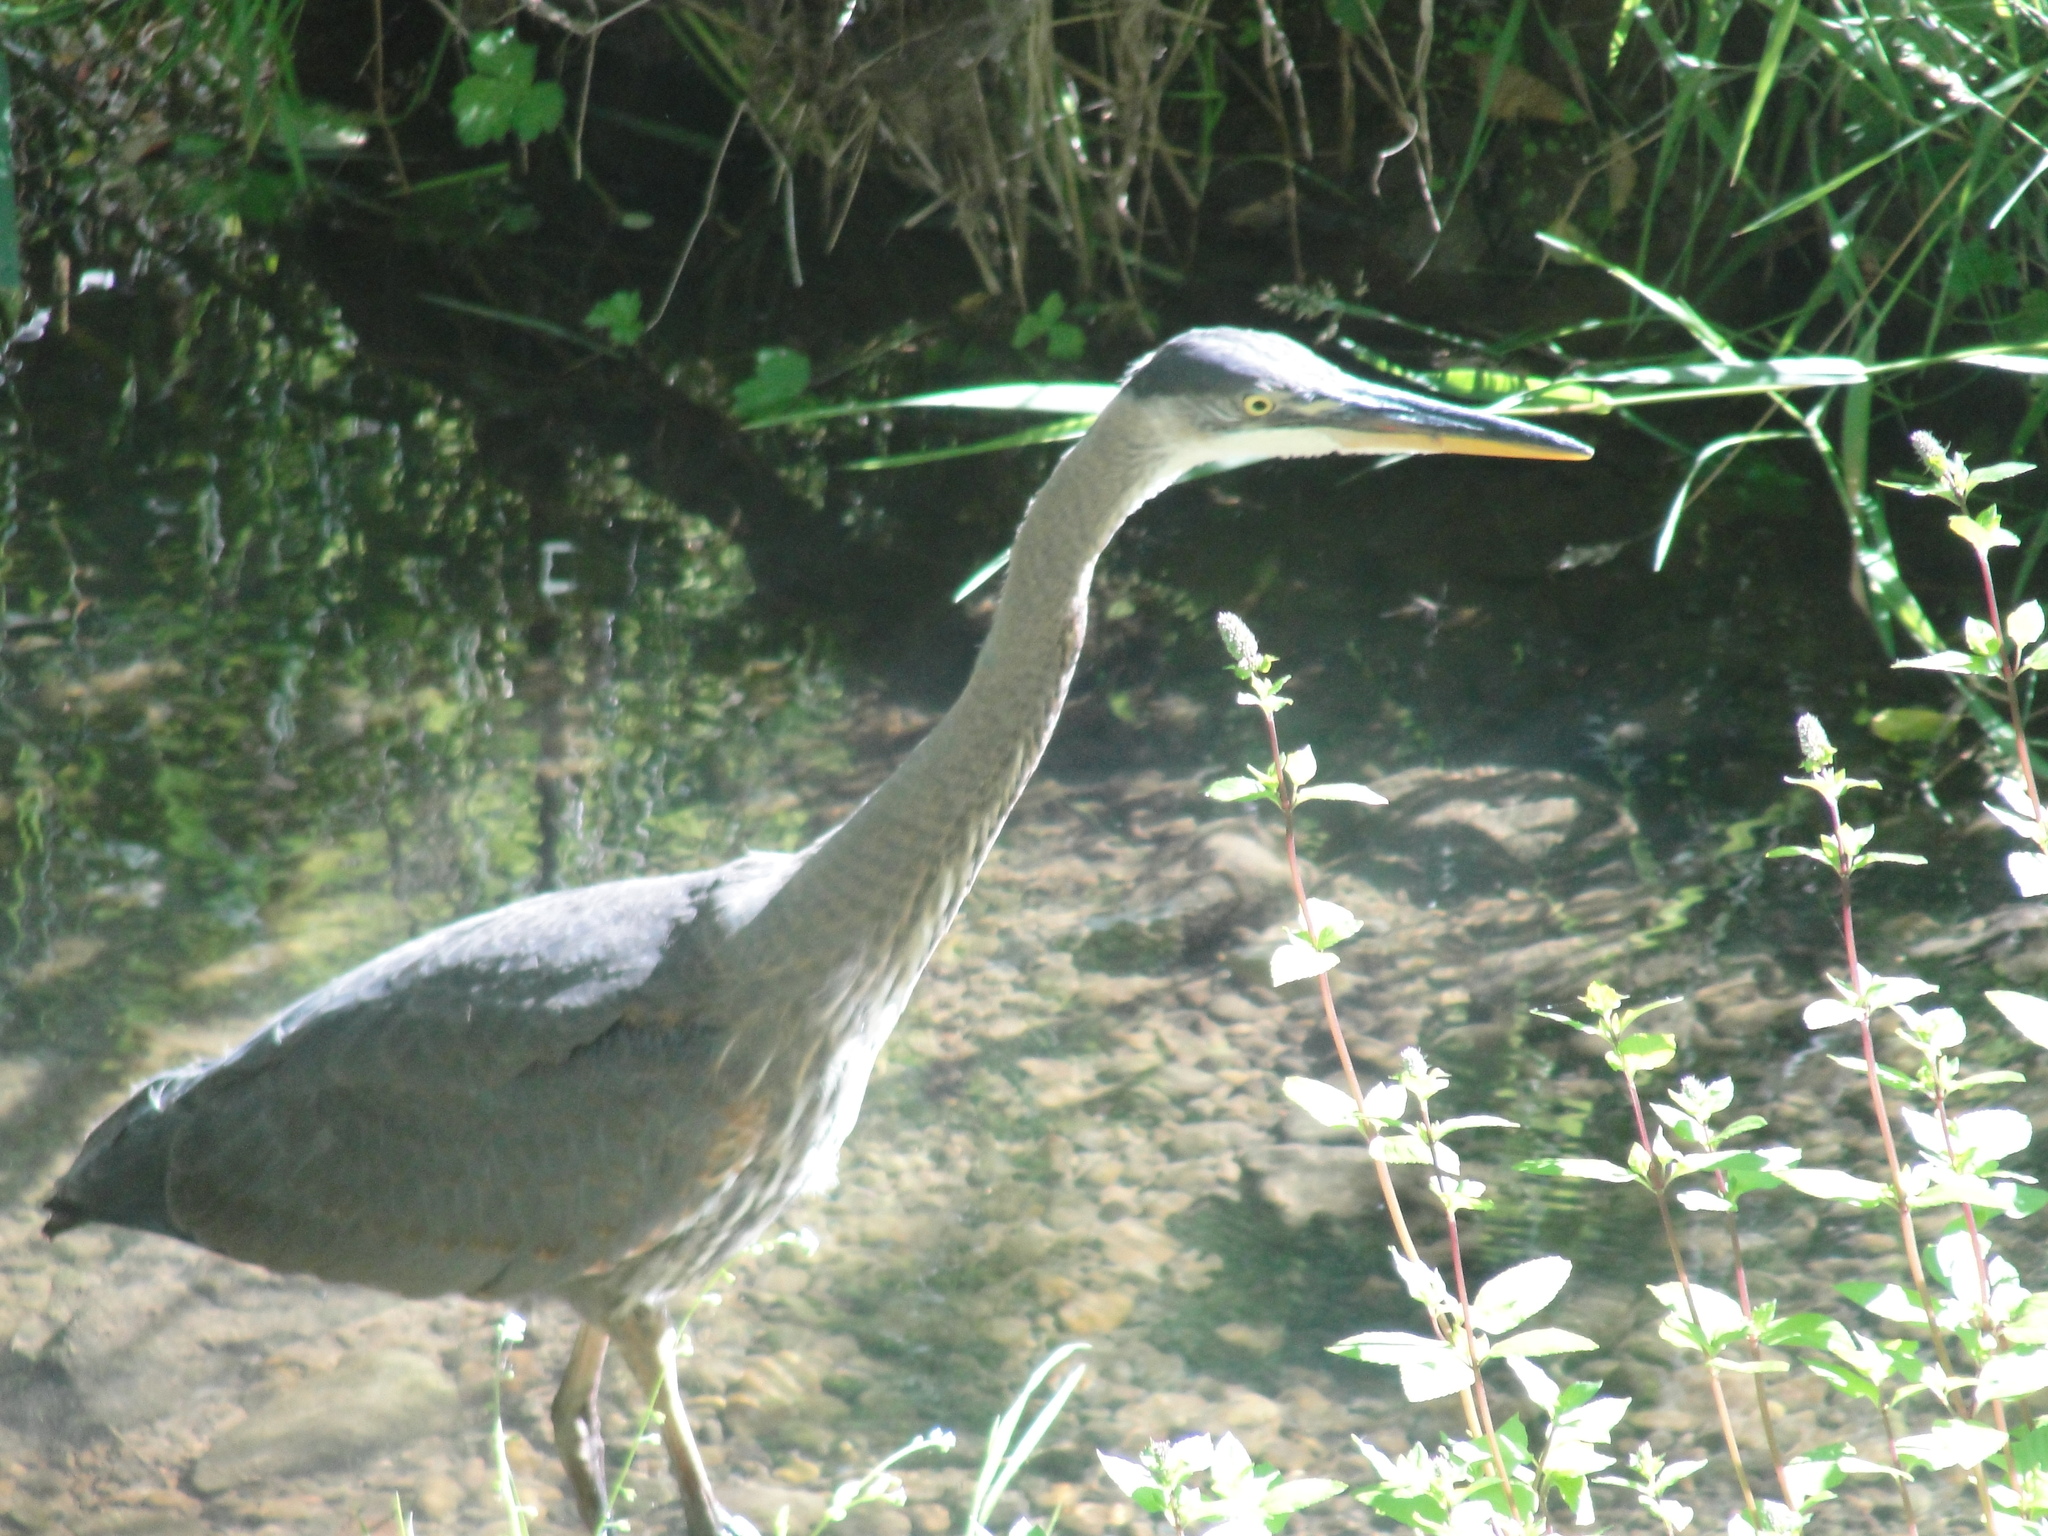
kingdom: Animalia
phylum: Chordata
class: Aves
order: Pelecaniformes
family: Ardeidae
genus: Ardea
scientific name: Ardea herodias
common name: Great blue heron
